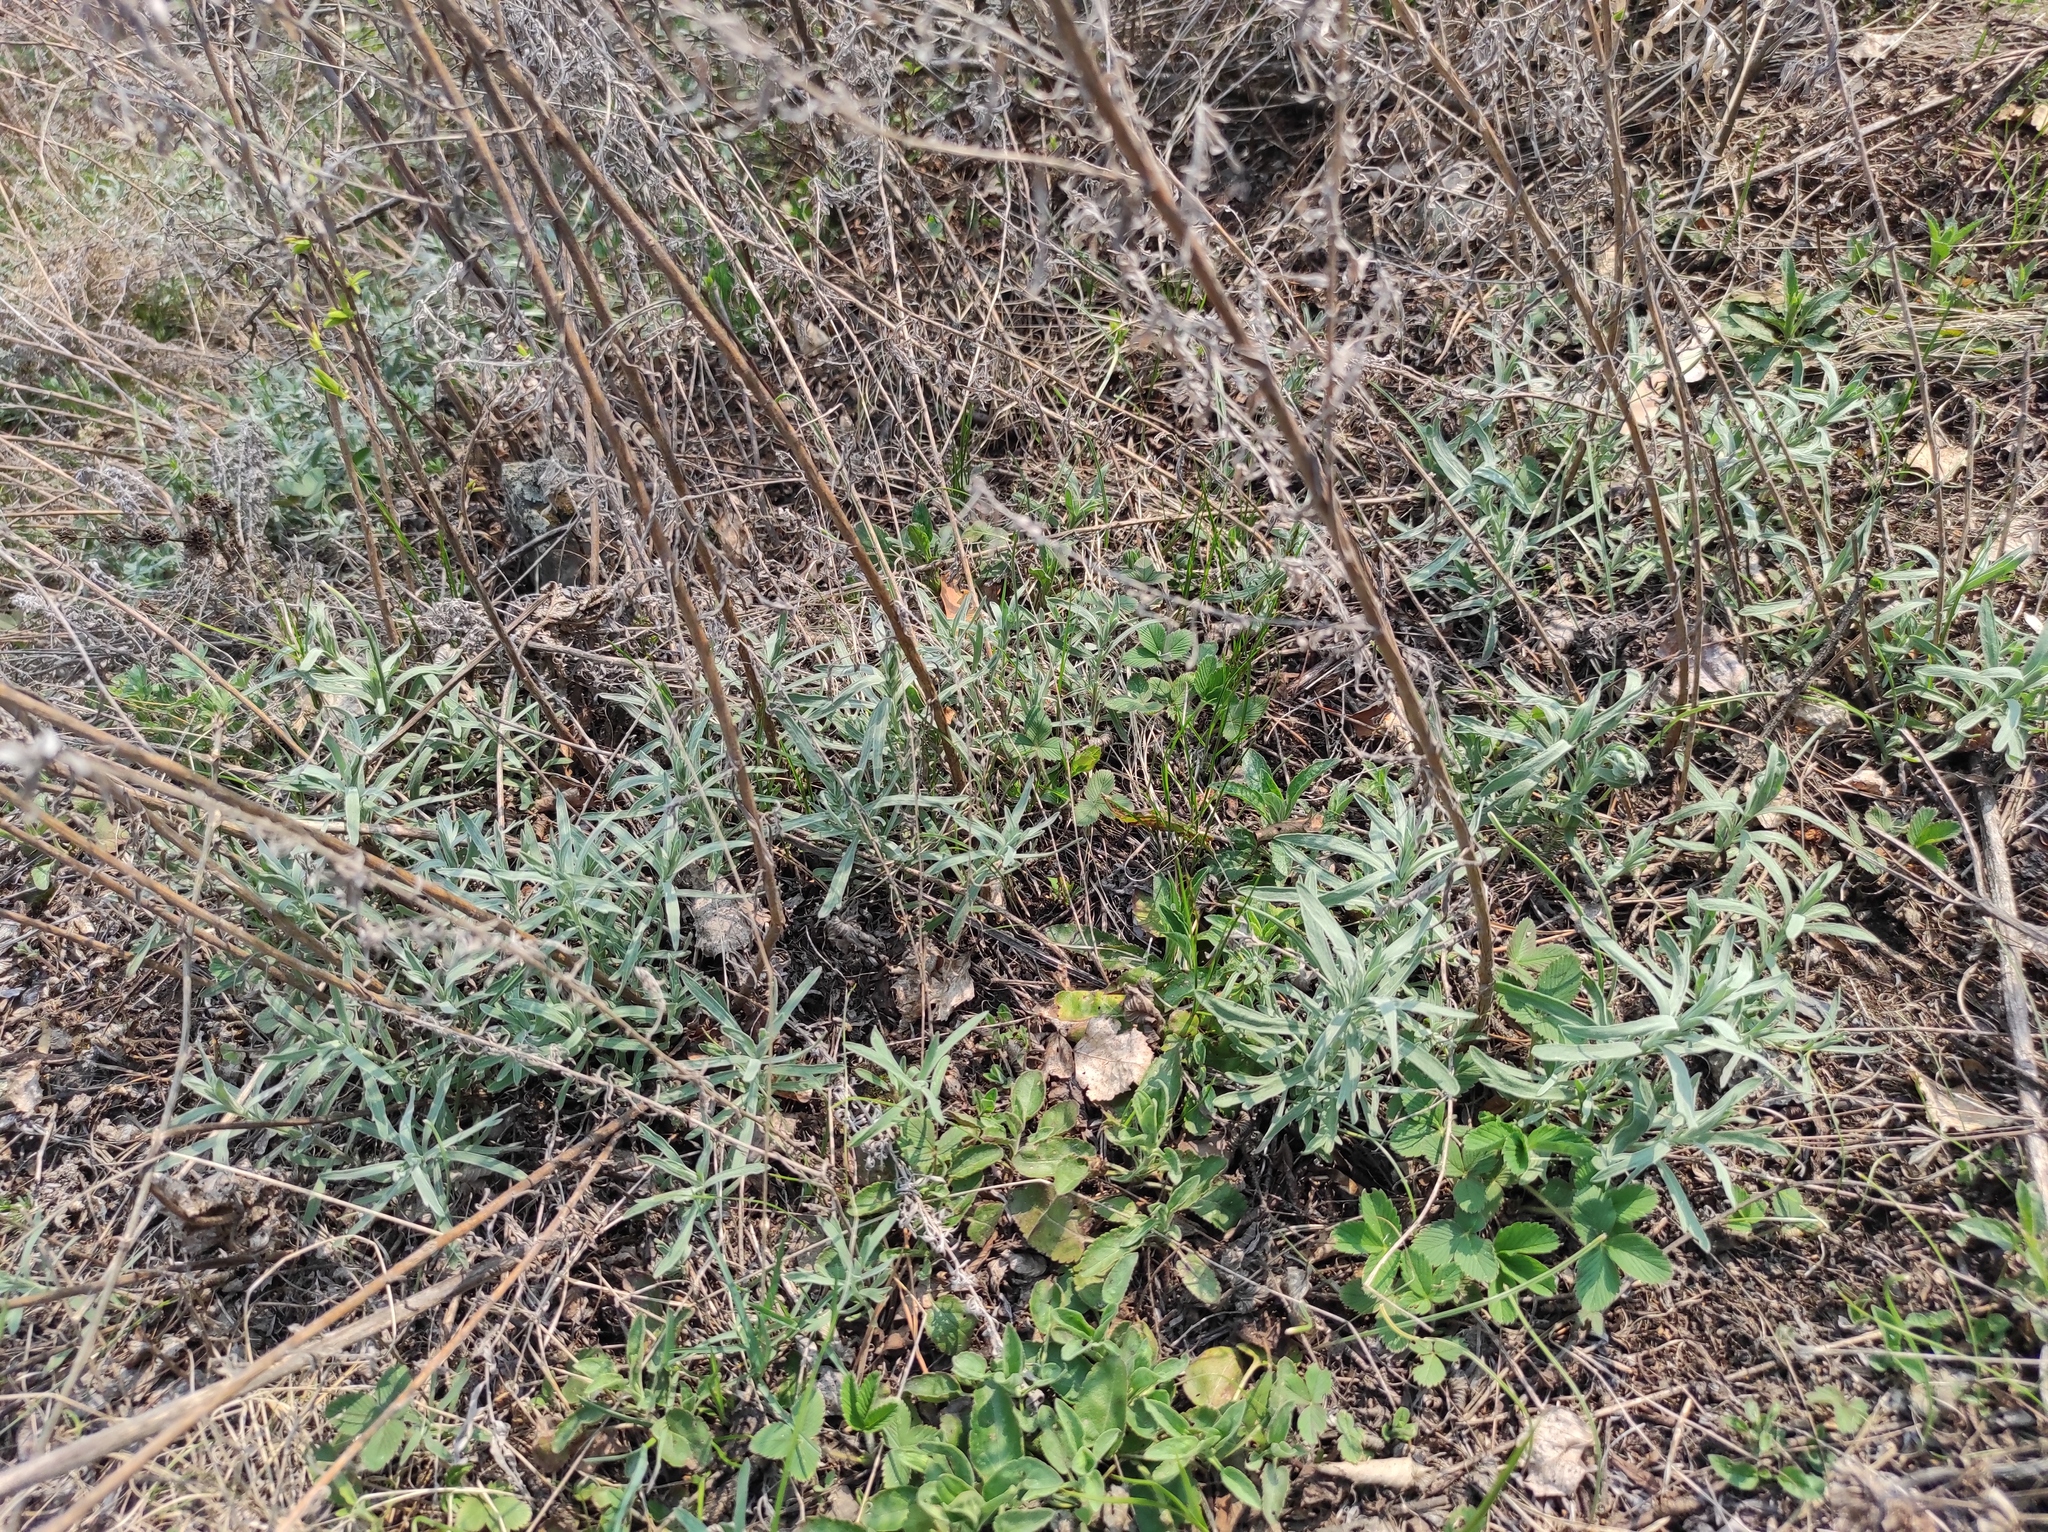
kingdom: Plantae
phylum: Tracheophyta
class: Magnoliopsida
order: Asterales
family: Asteraceae
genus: Artemisia
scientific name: Artemisia glauca
